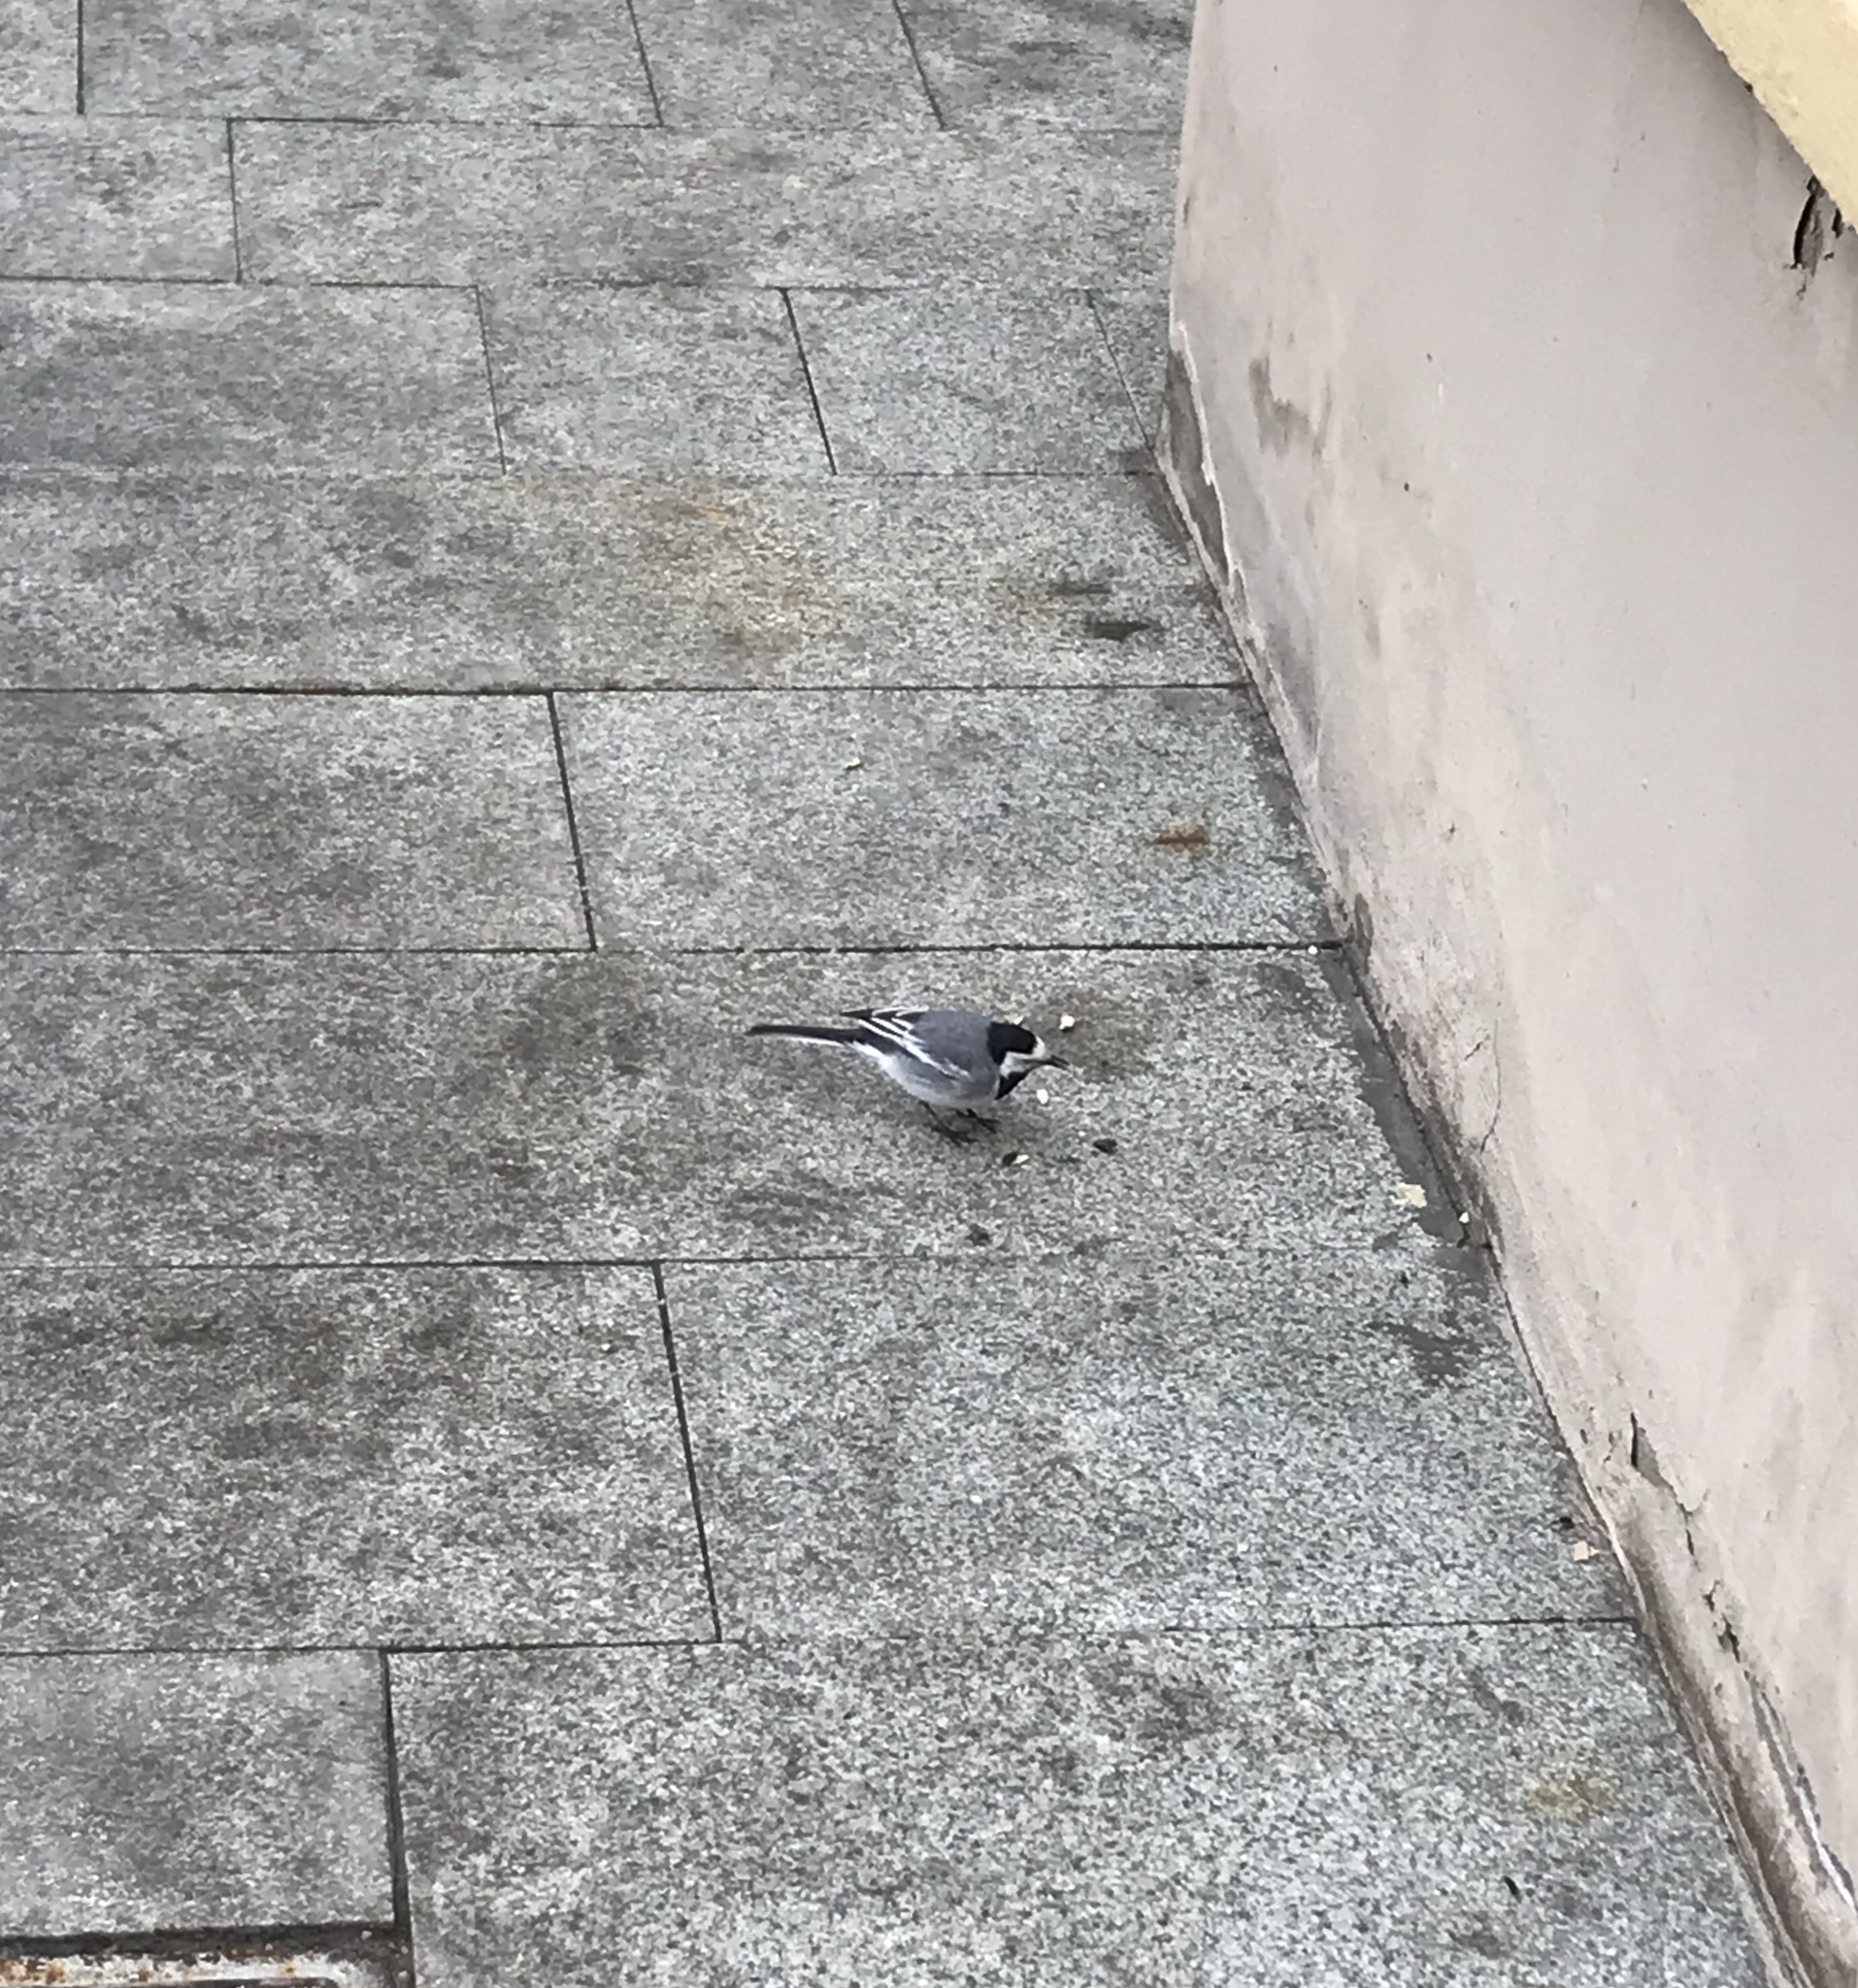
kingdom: Animalia
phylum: Chordata
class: Aves
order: Passeriformes
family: Motacillidae
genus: Motacilla
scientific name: Motacilla alba
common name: White wagtail
